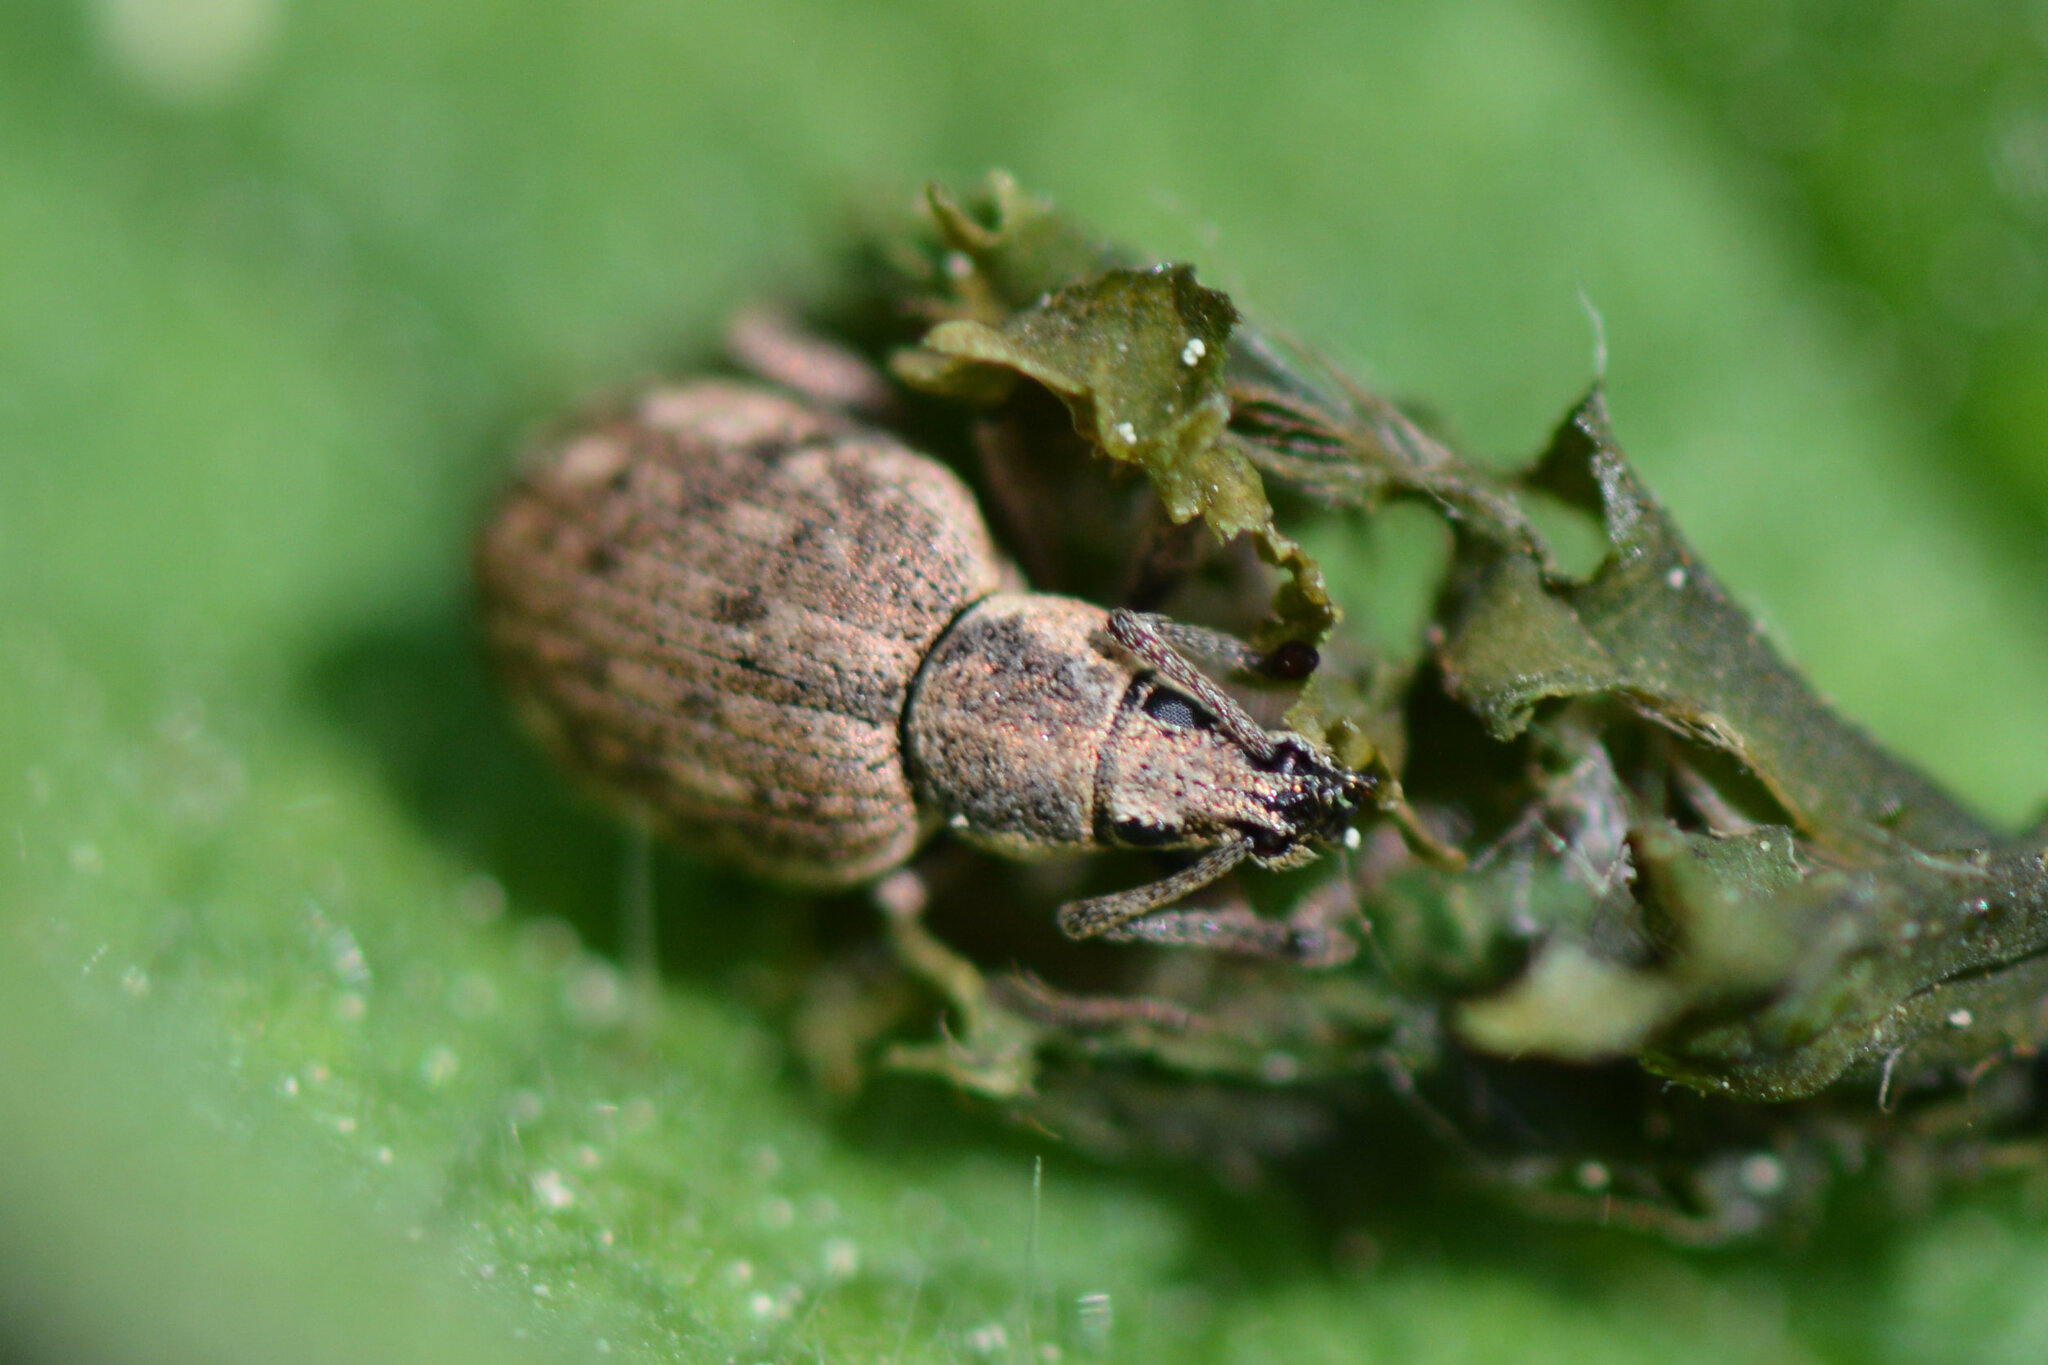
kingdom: Animalia
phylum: Arthropoda
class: Insecta
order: Coleoptera
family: Curculionidae
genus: Peritelus
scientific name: Peritelus sphaeroides
